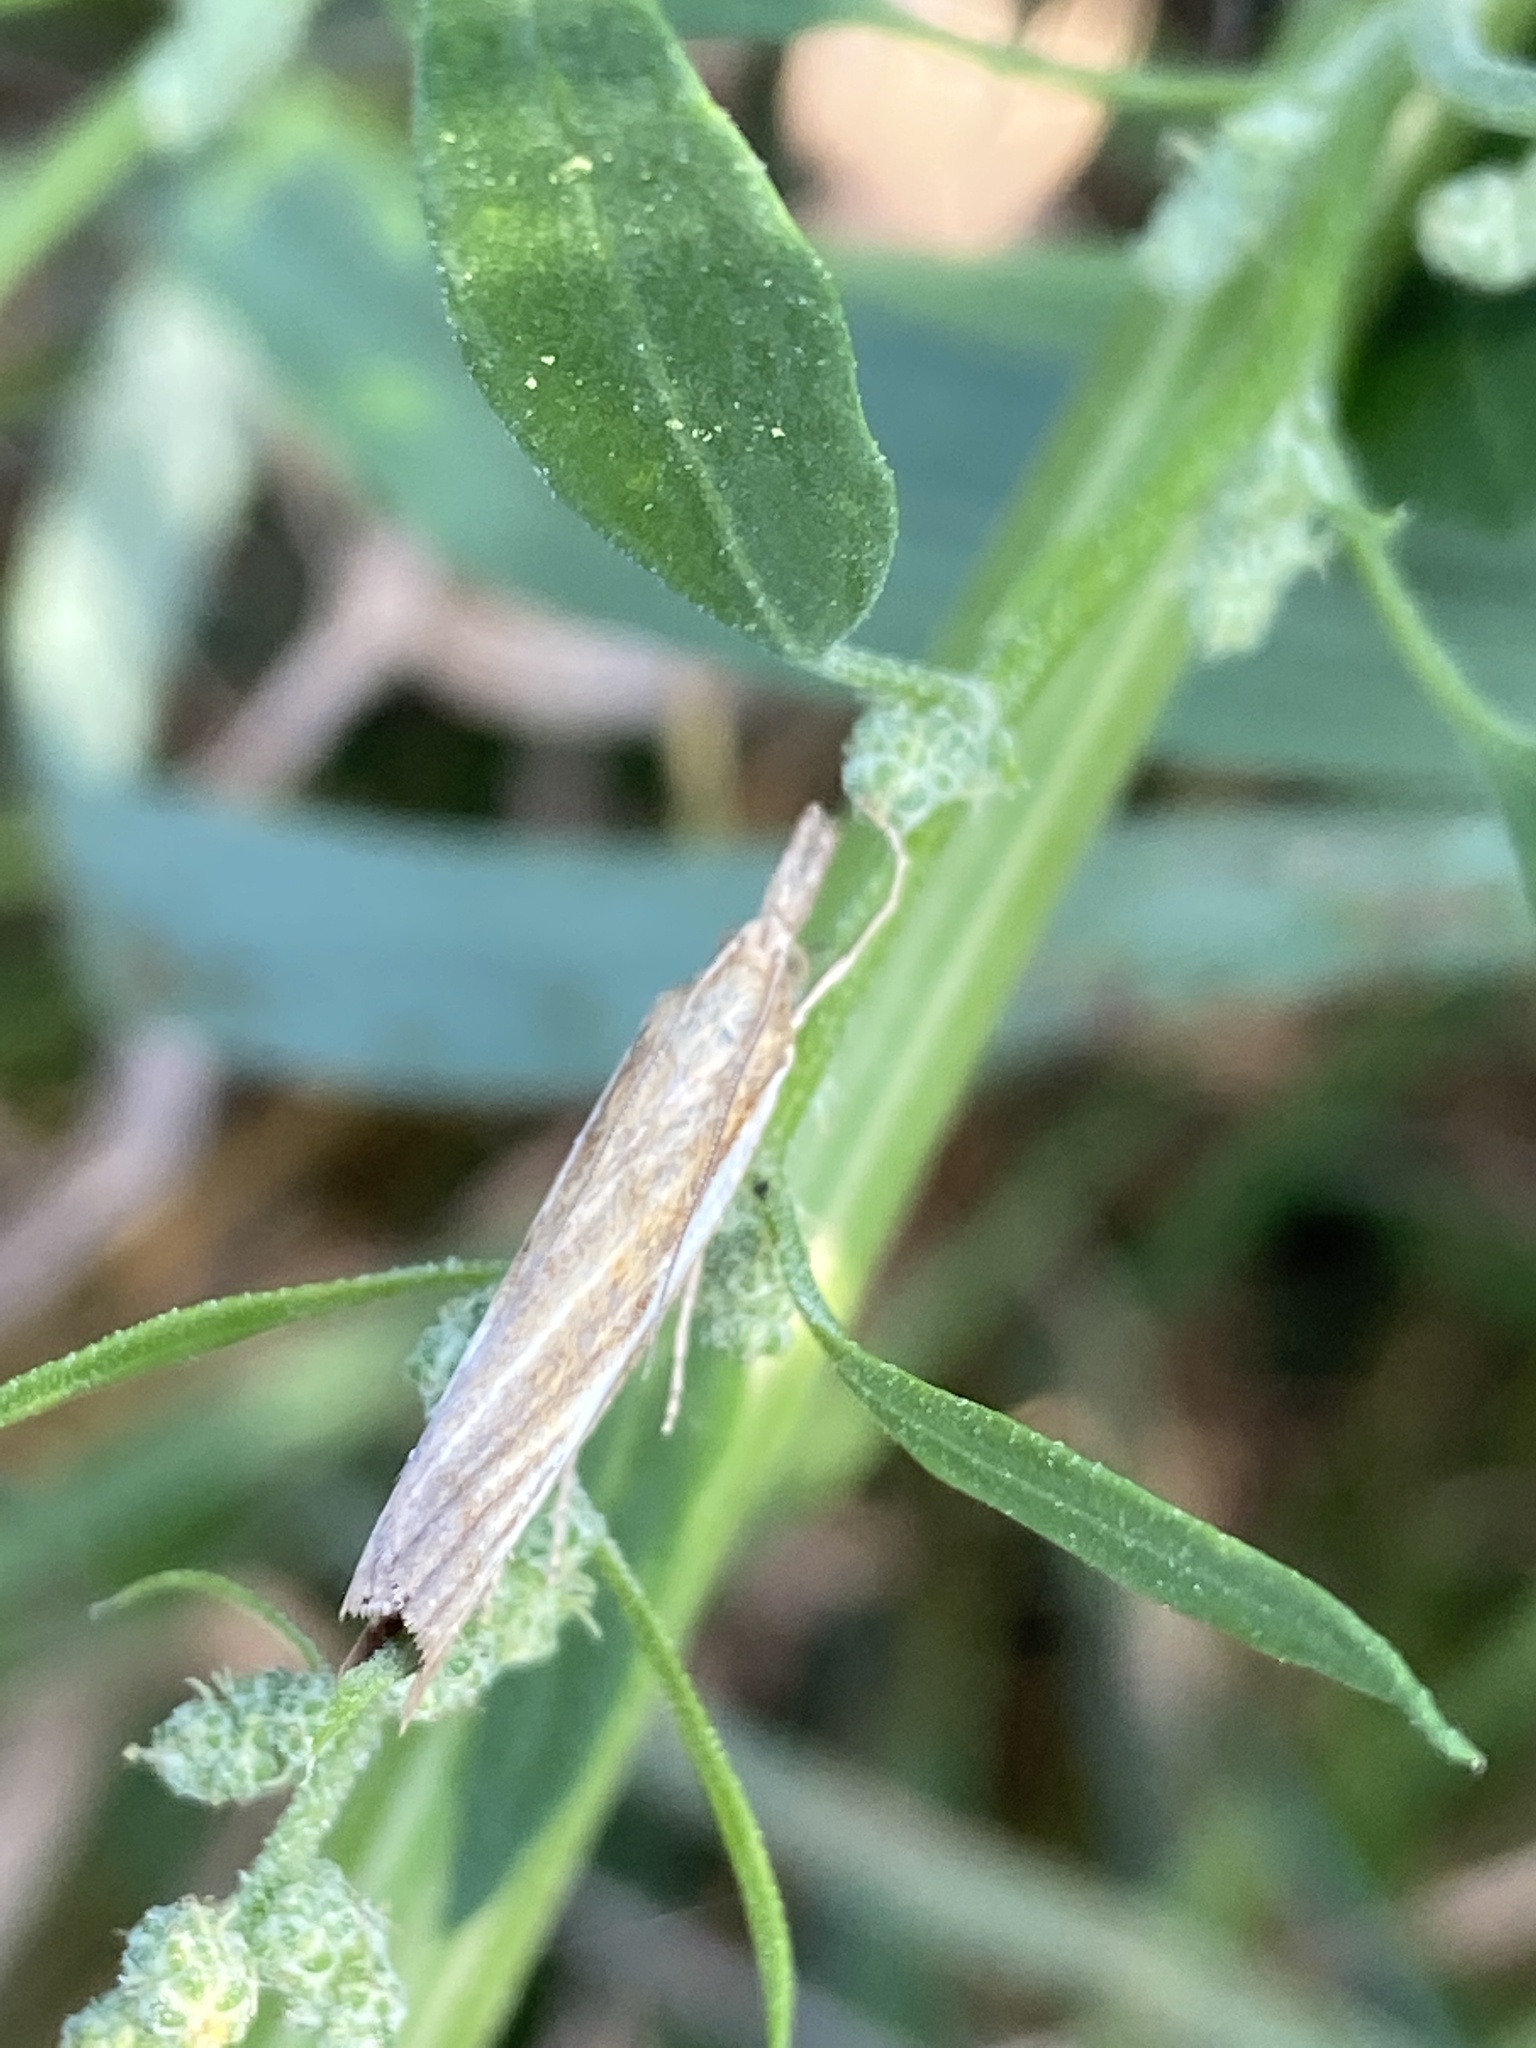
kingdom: Animalia
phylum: Arthropoda
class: Insecta
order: Lepidoptera
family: Crambidae
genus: Agriphila
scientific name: Agriphila tristellus
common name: Common grass-veneer
